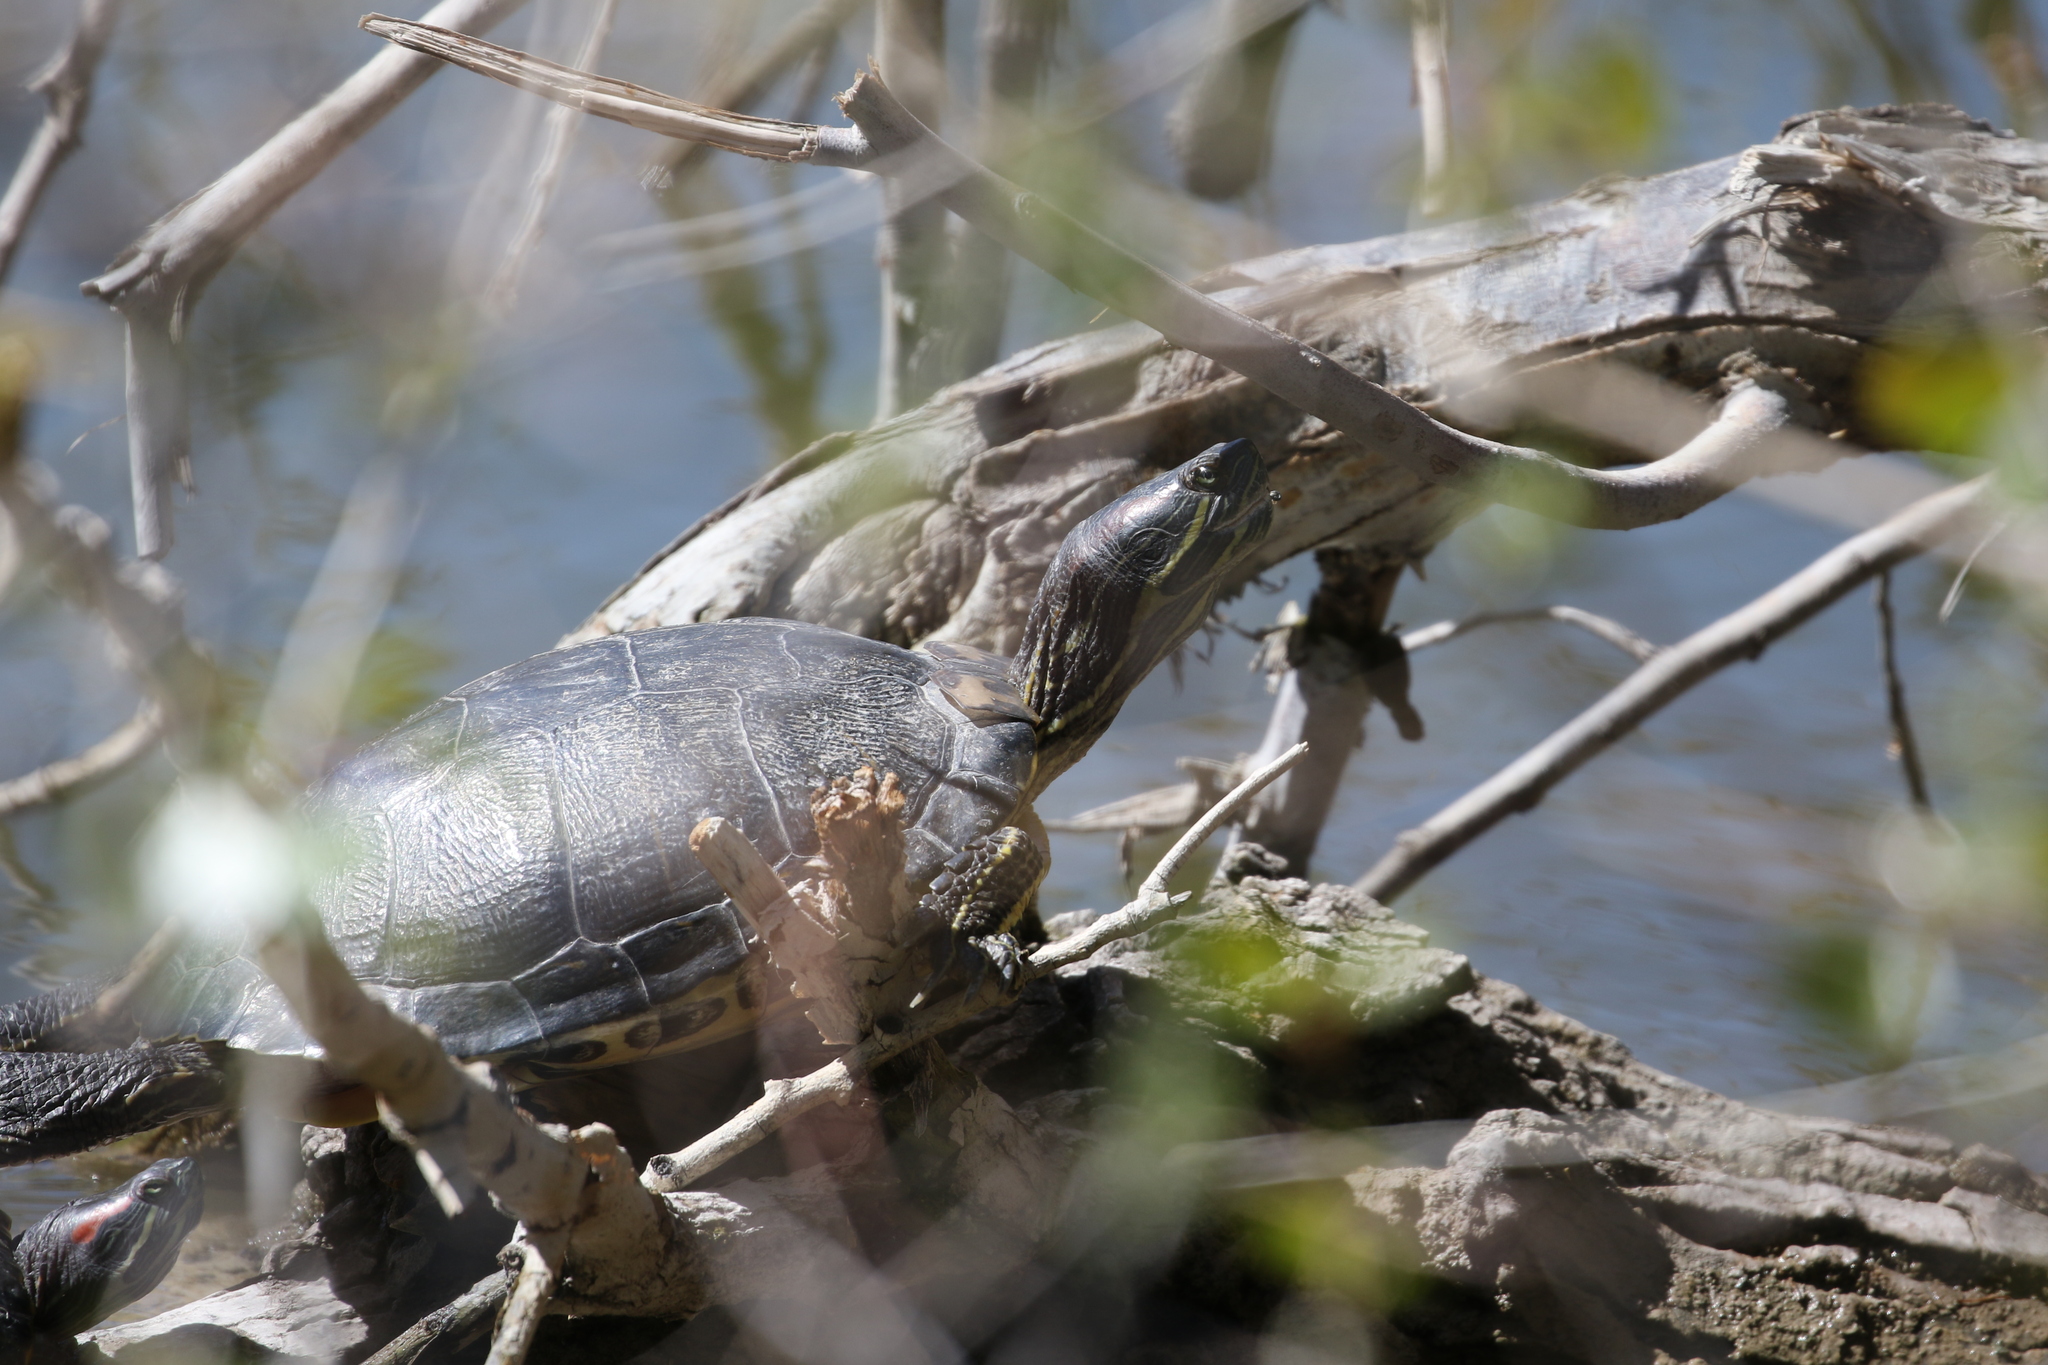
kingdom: Animalia
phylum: Chordata
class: Testudines
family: Emydidae
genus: Trachemys
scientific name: Trachemys scripta
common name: Slider
